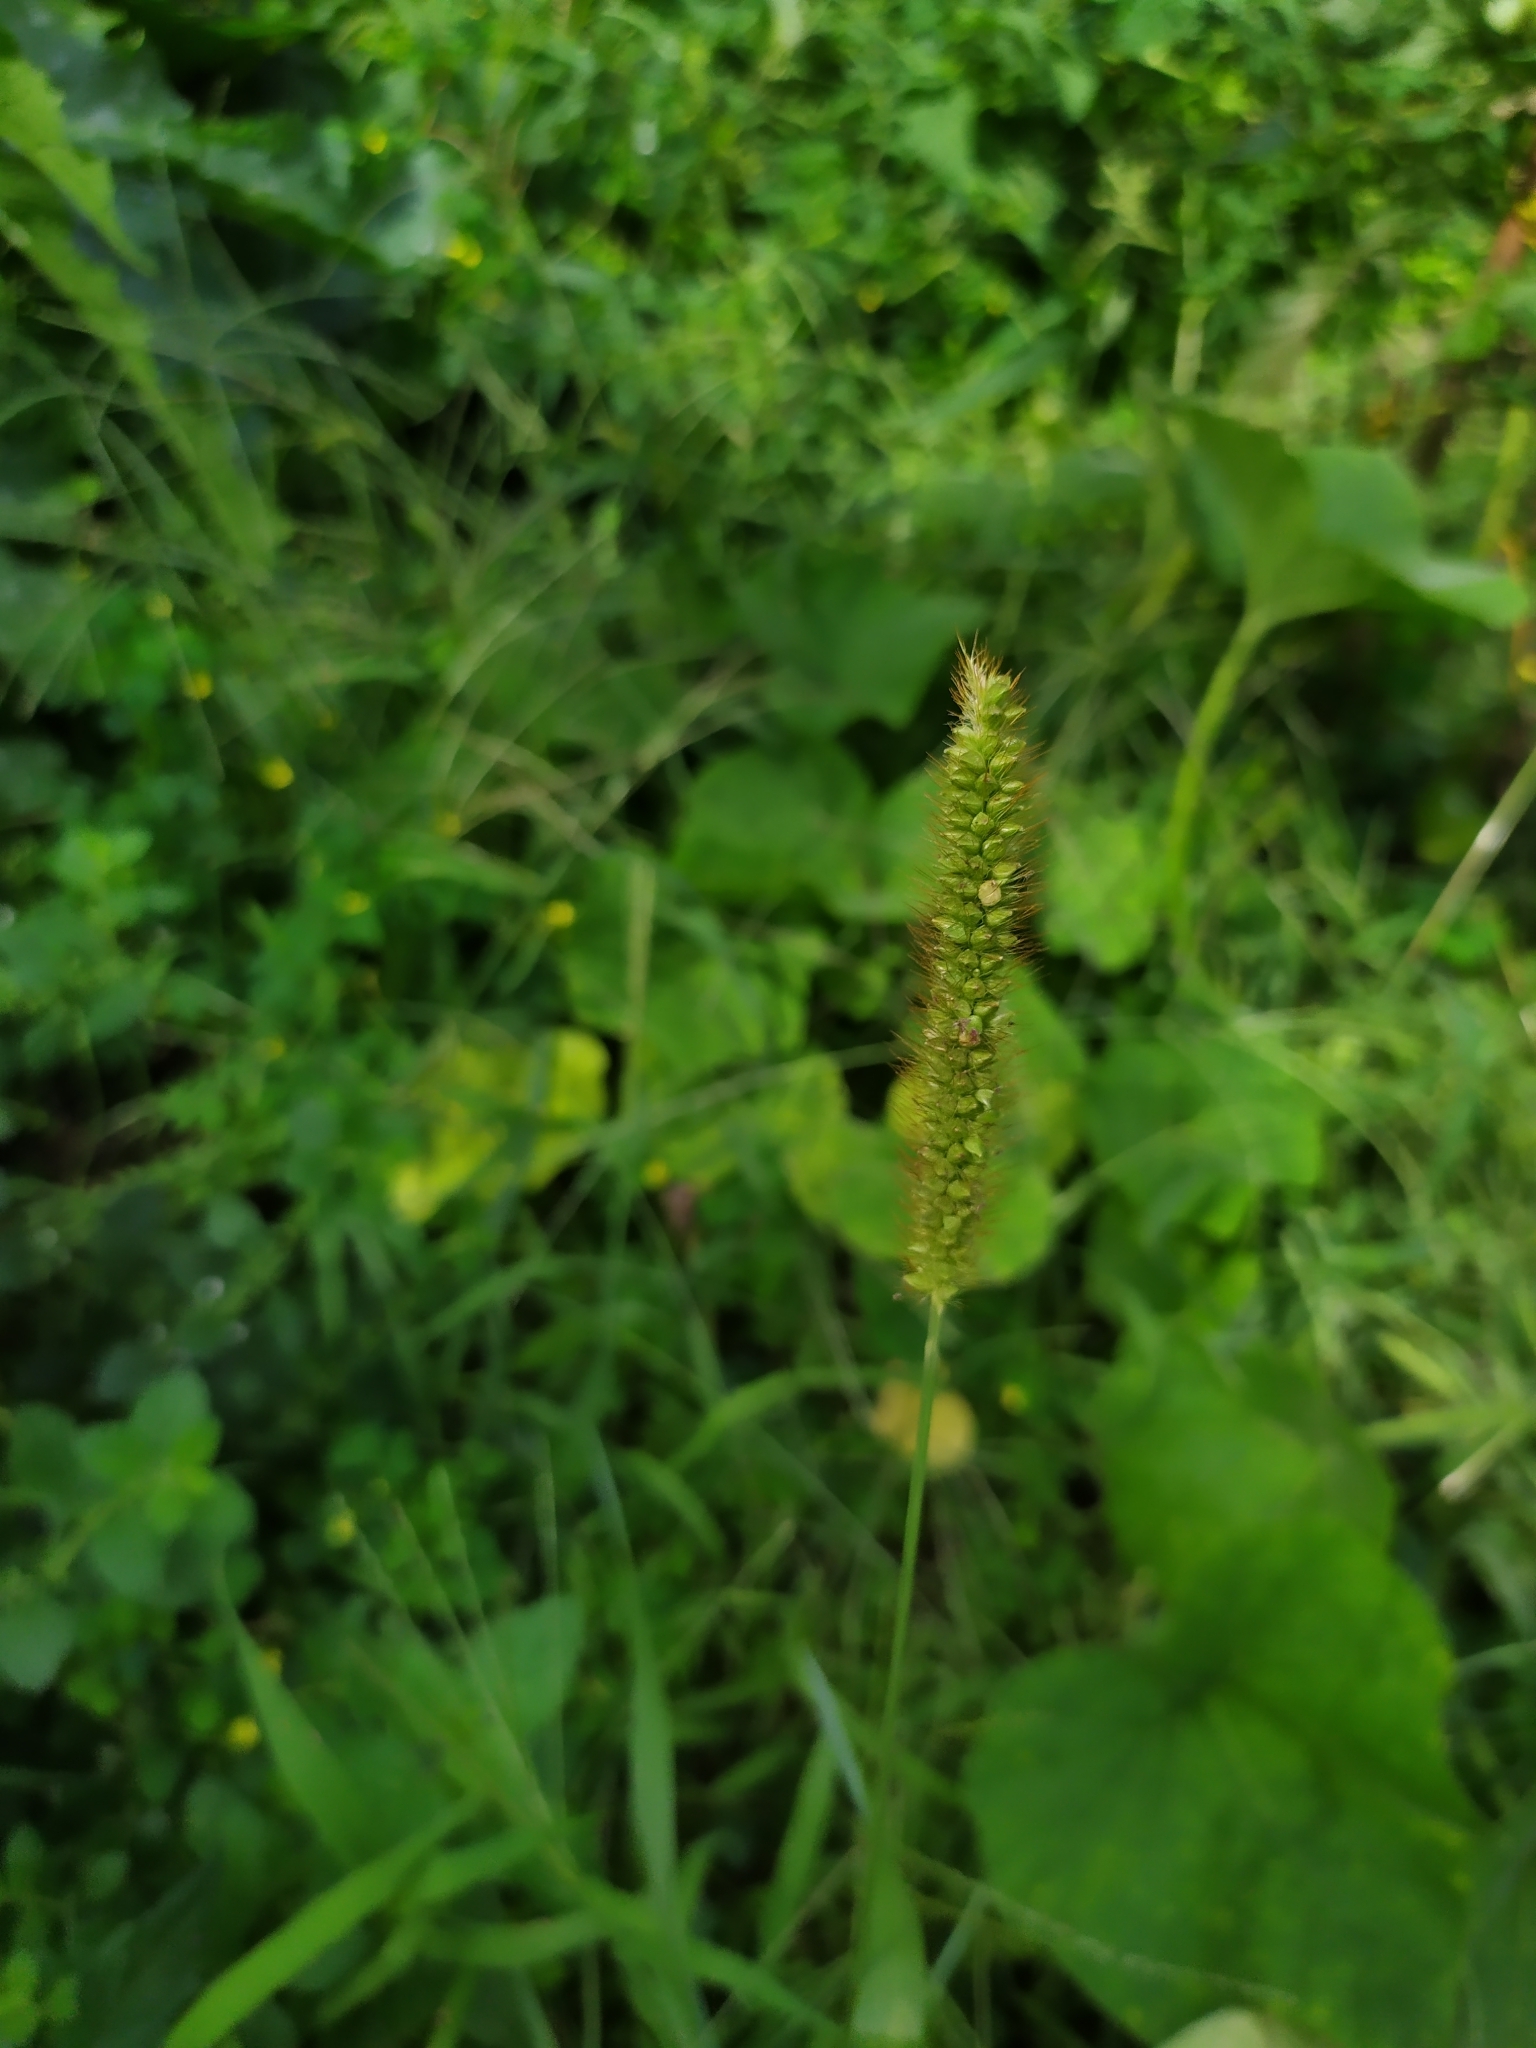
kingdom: Plantae
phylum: Tracheophyta
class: Liliopsida
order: Poales
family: Poaceae
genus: Setaria
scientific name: Setaria pumila
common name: Yellow bristle-grass
